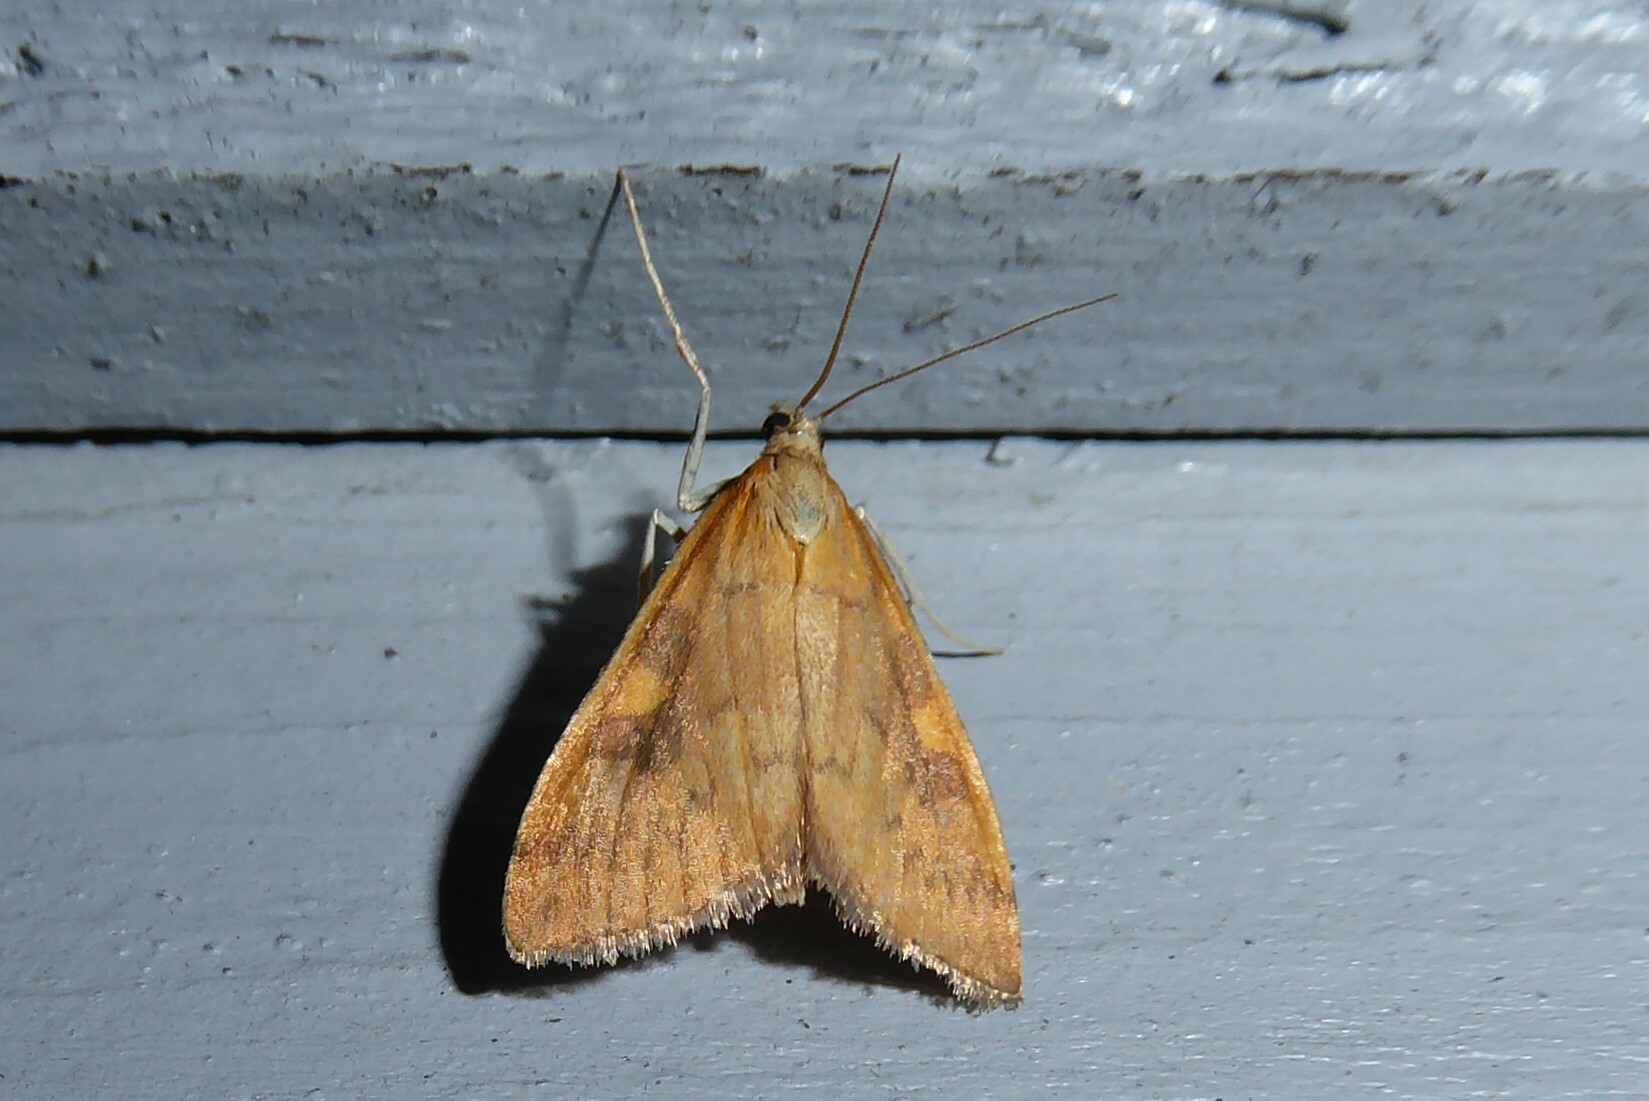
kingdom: Animalia
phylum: Arthropoda
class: Insecta
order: Lepidoptera
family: Crambidae
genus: Udea
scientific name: Udea Mnesictena flavidalis
